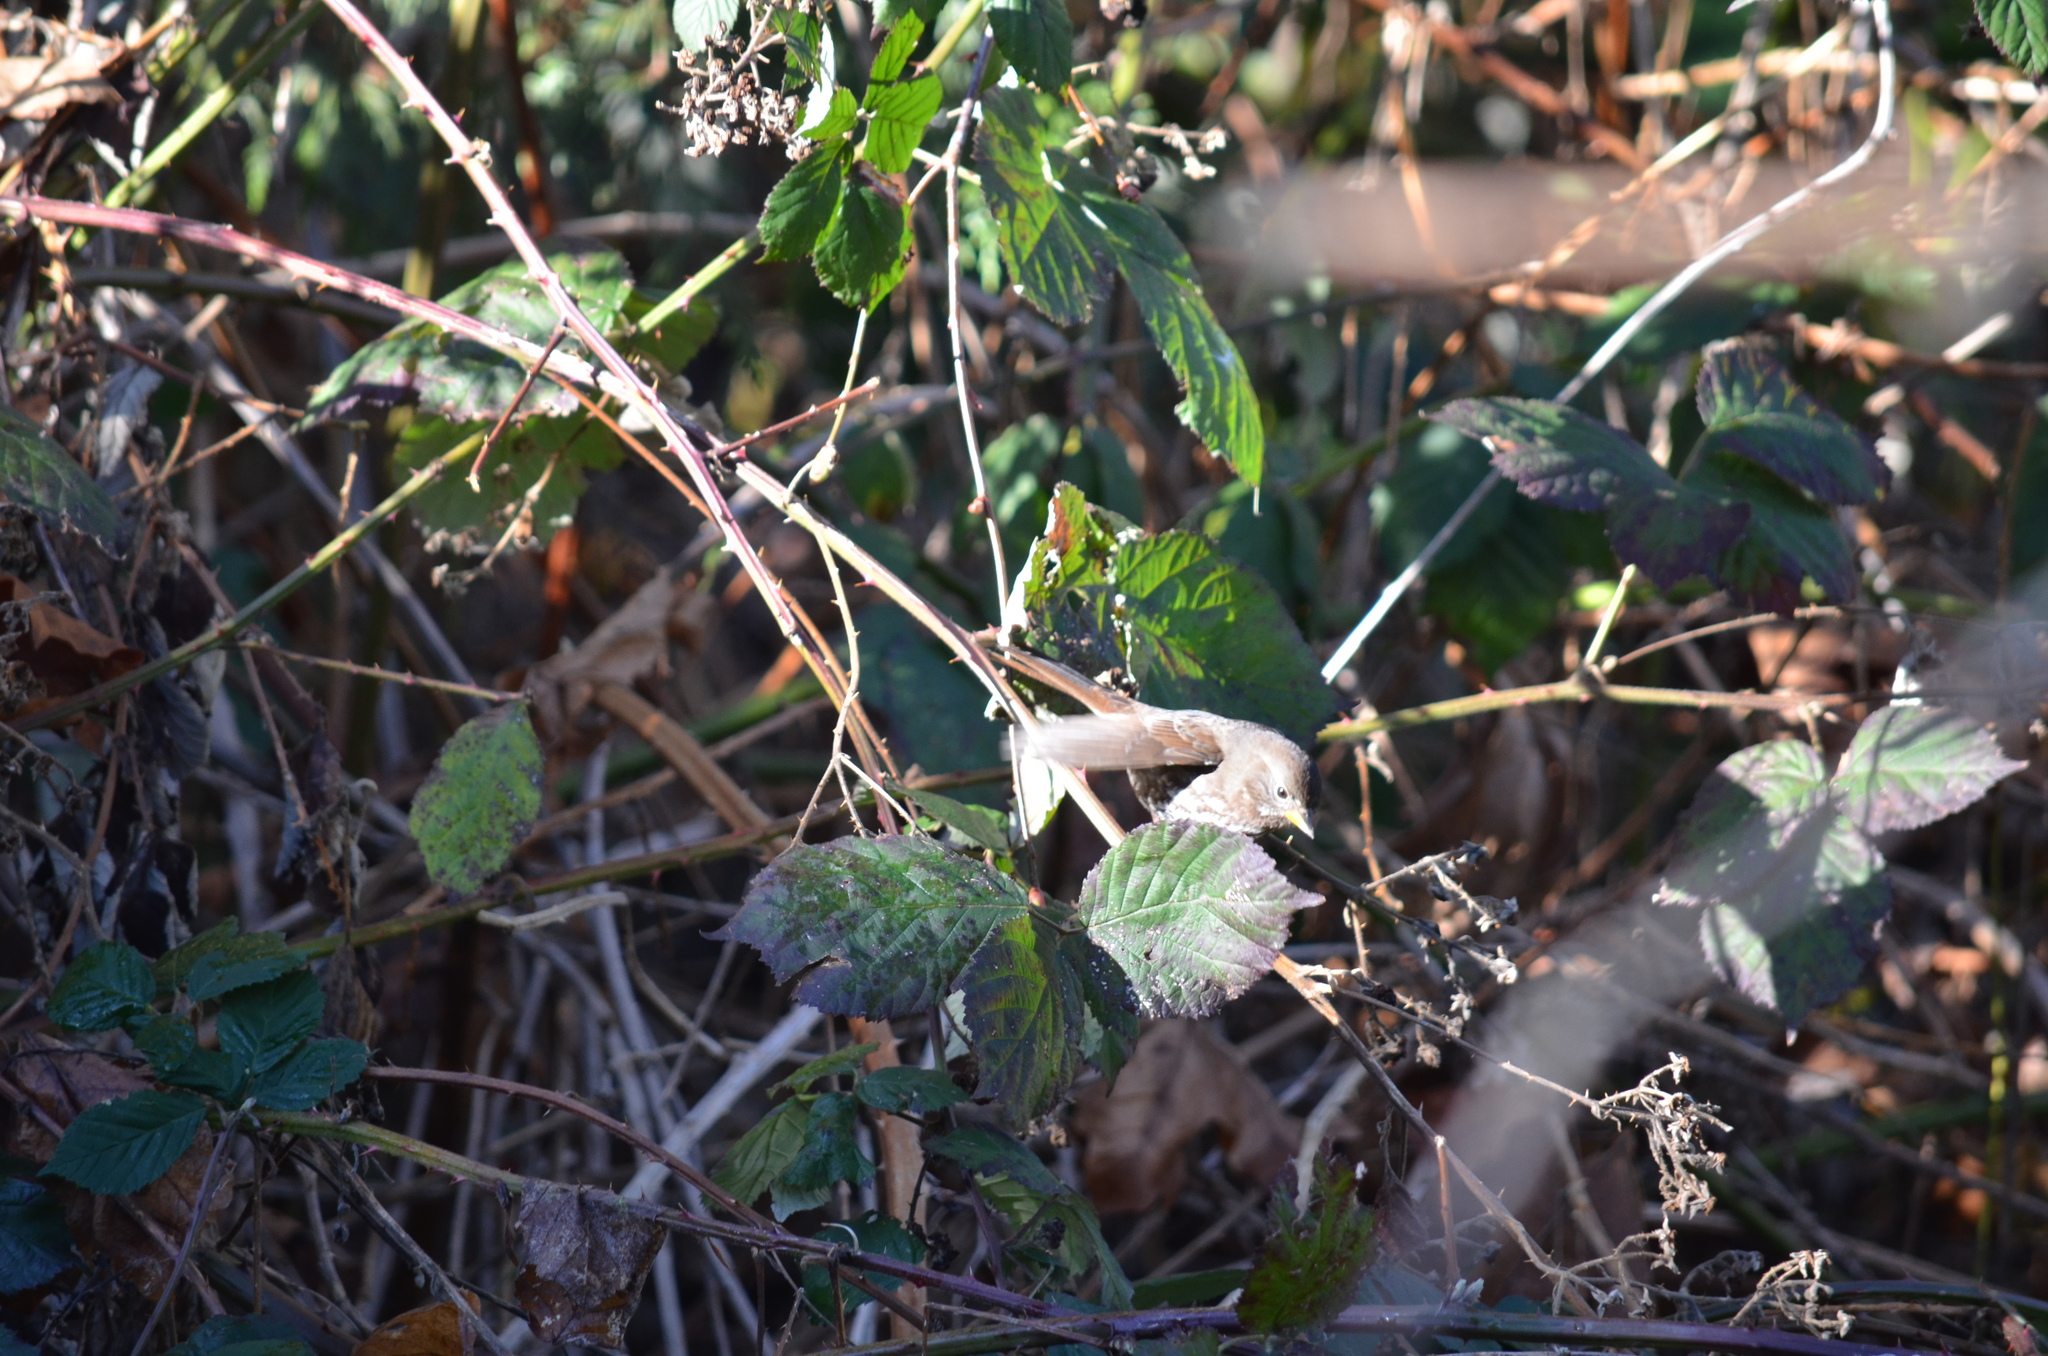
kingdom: Animalia
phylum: Chordata
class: Aves
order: Passeriformes
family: Passerellidae
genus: Passerella
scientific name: Passerella iliaca
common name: Fox sparrow
